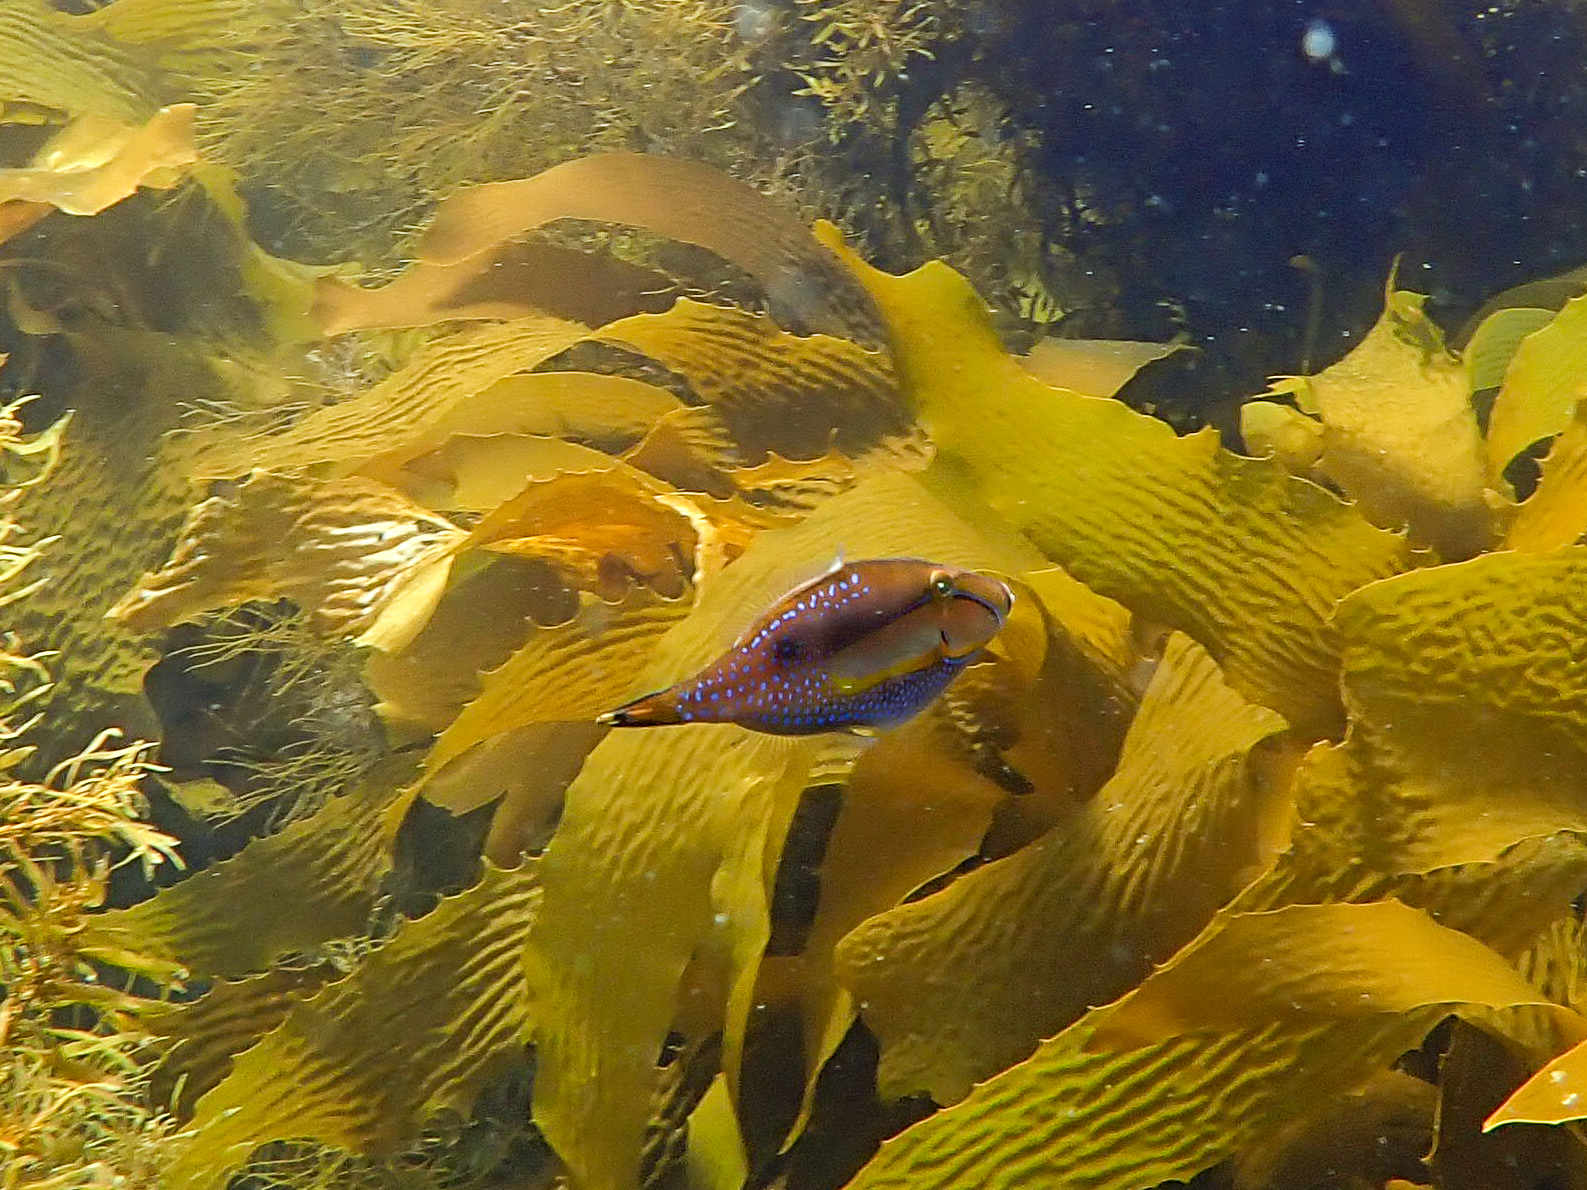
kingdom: Animalia
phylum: Chordata
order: Tetraodontiformes
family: Monacanthidae
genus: Acanthaluteres
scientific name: Acanthaluteres spilomelanurus
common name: Bridled leatherjacket
